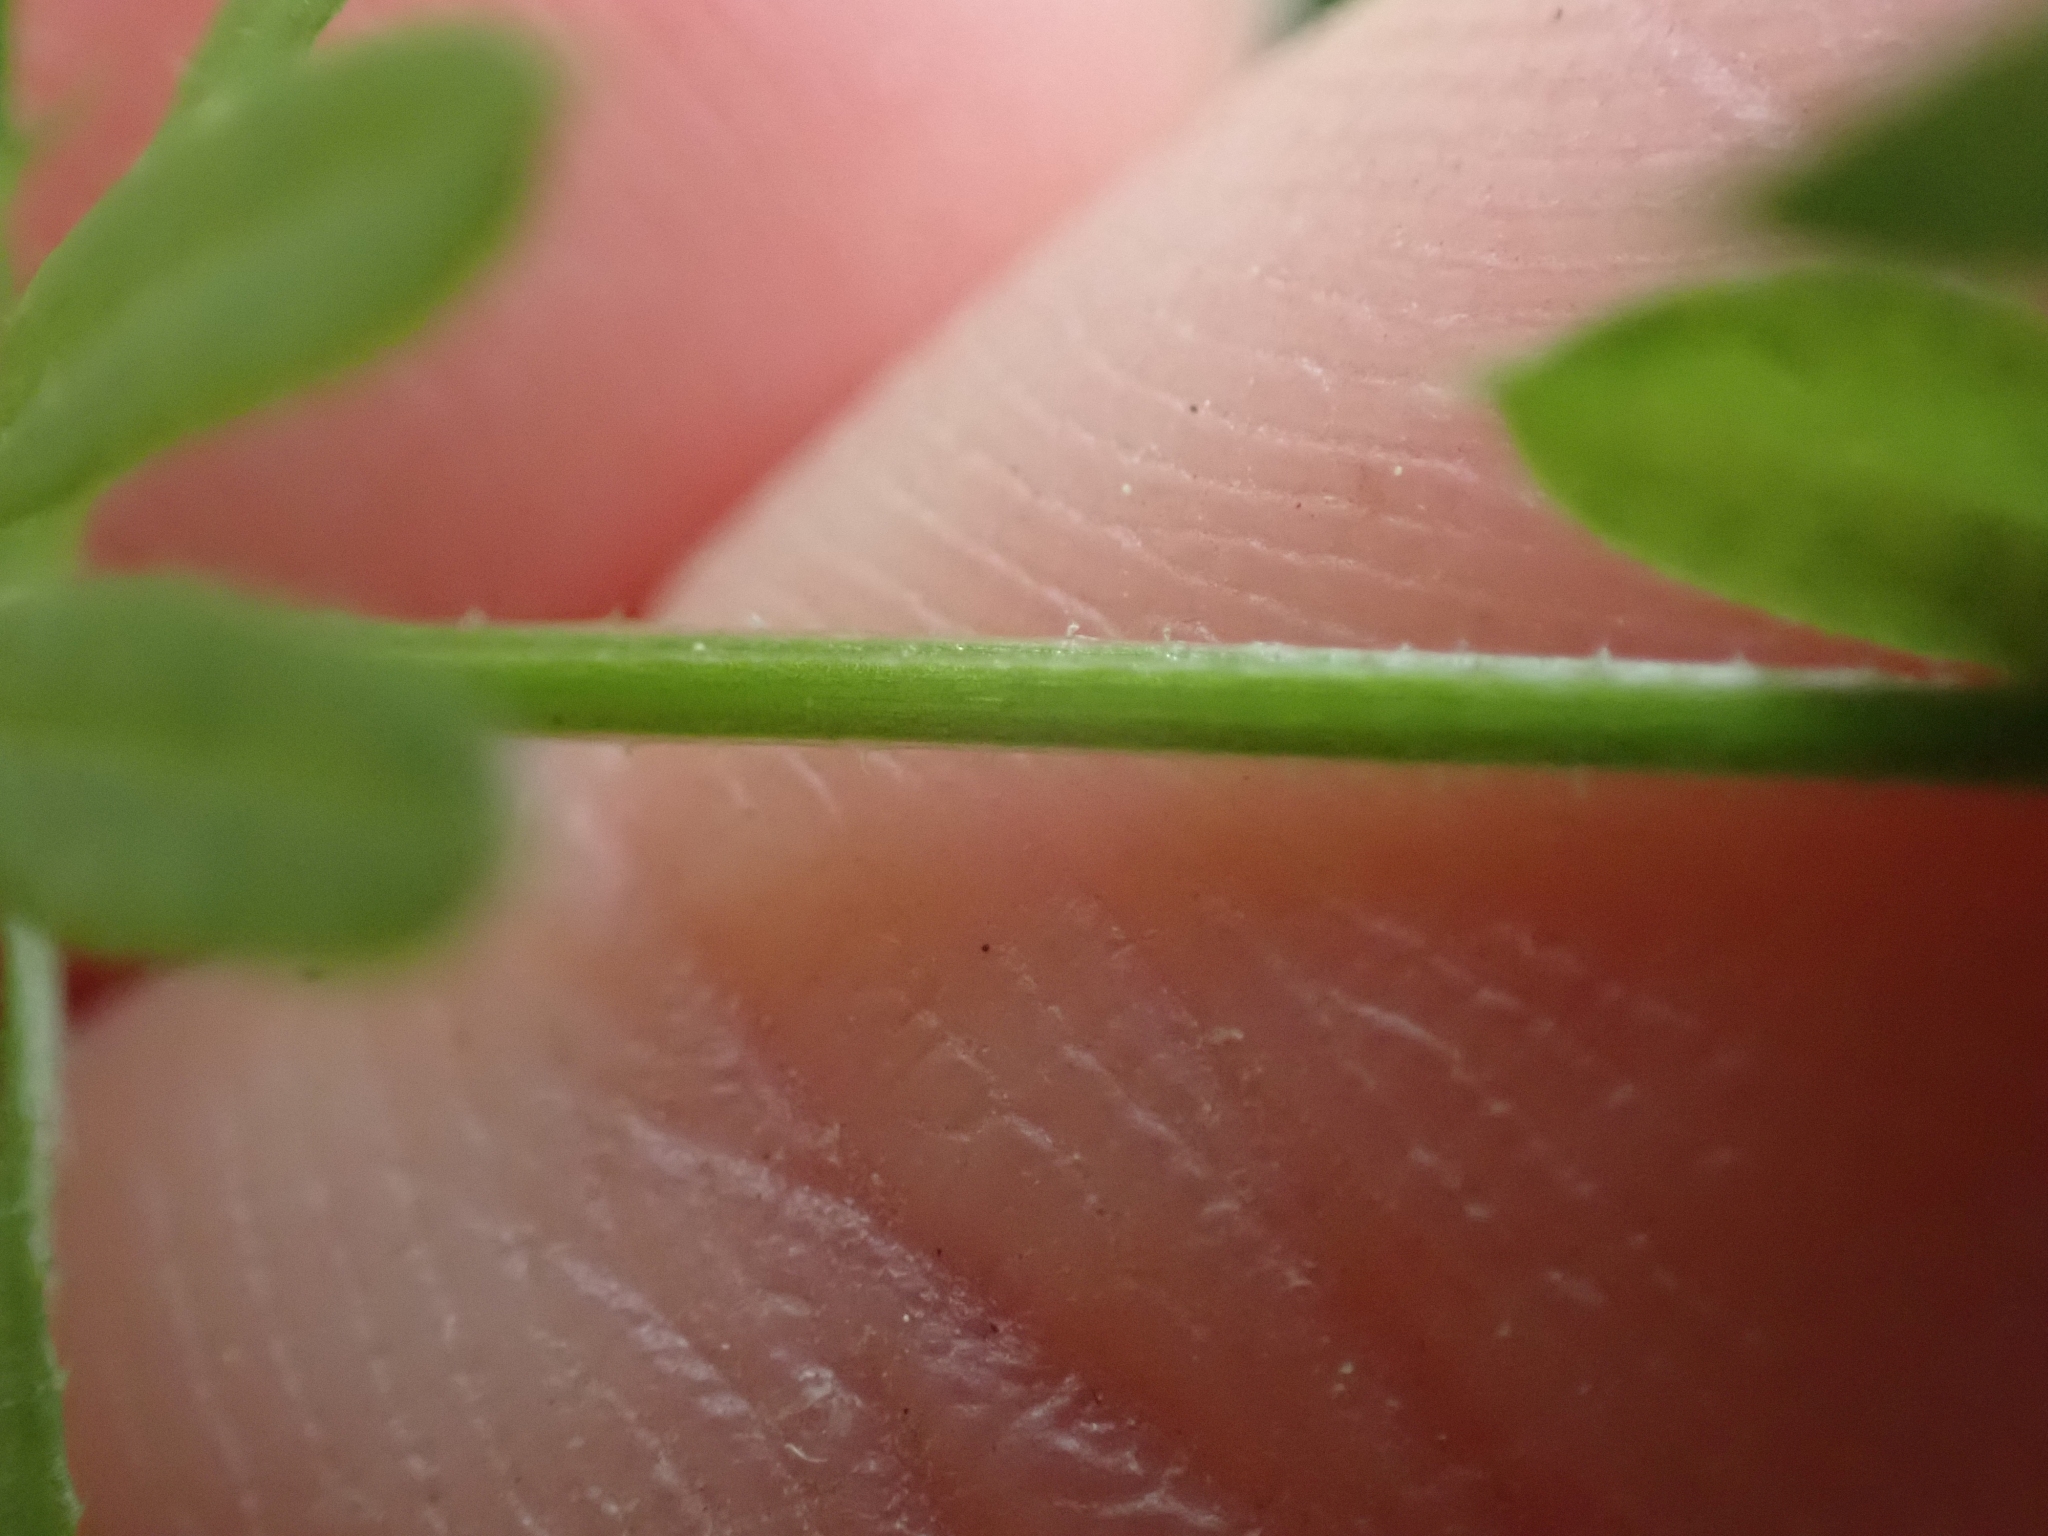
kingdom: Plantae
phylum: Tracheophyta
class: Magnoliopsida
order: Gentianales
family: Rubiaceae
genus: Galium
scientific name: Galium aparine
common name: Cleavers
